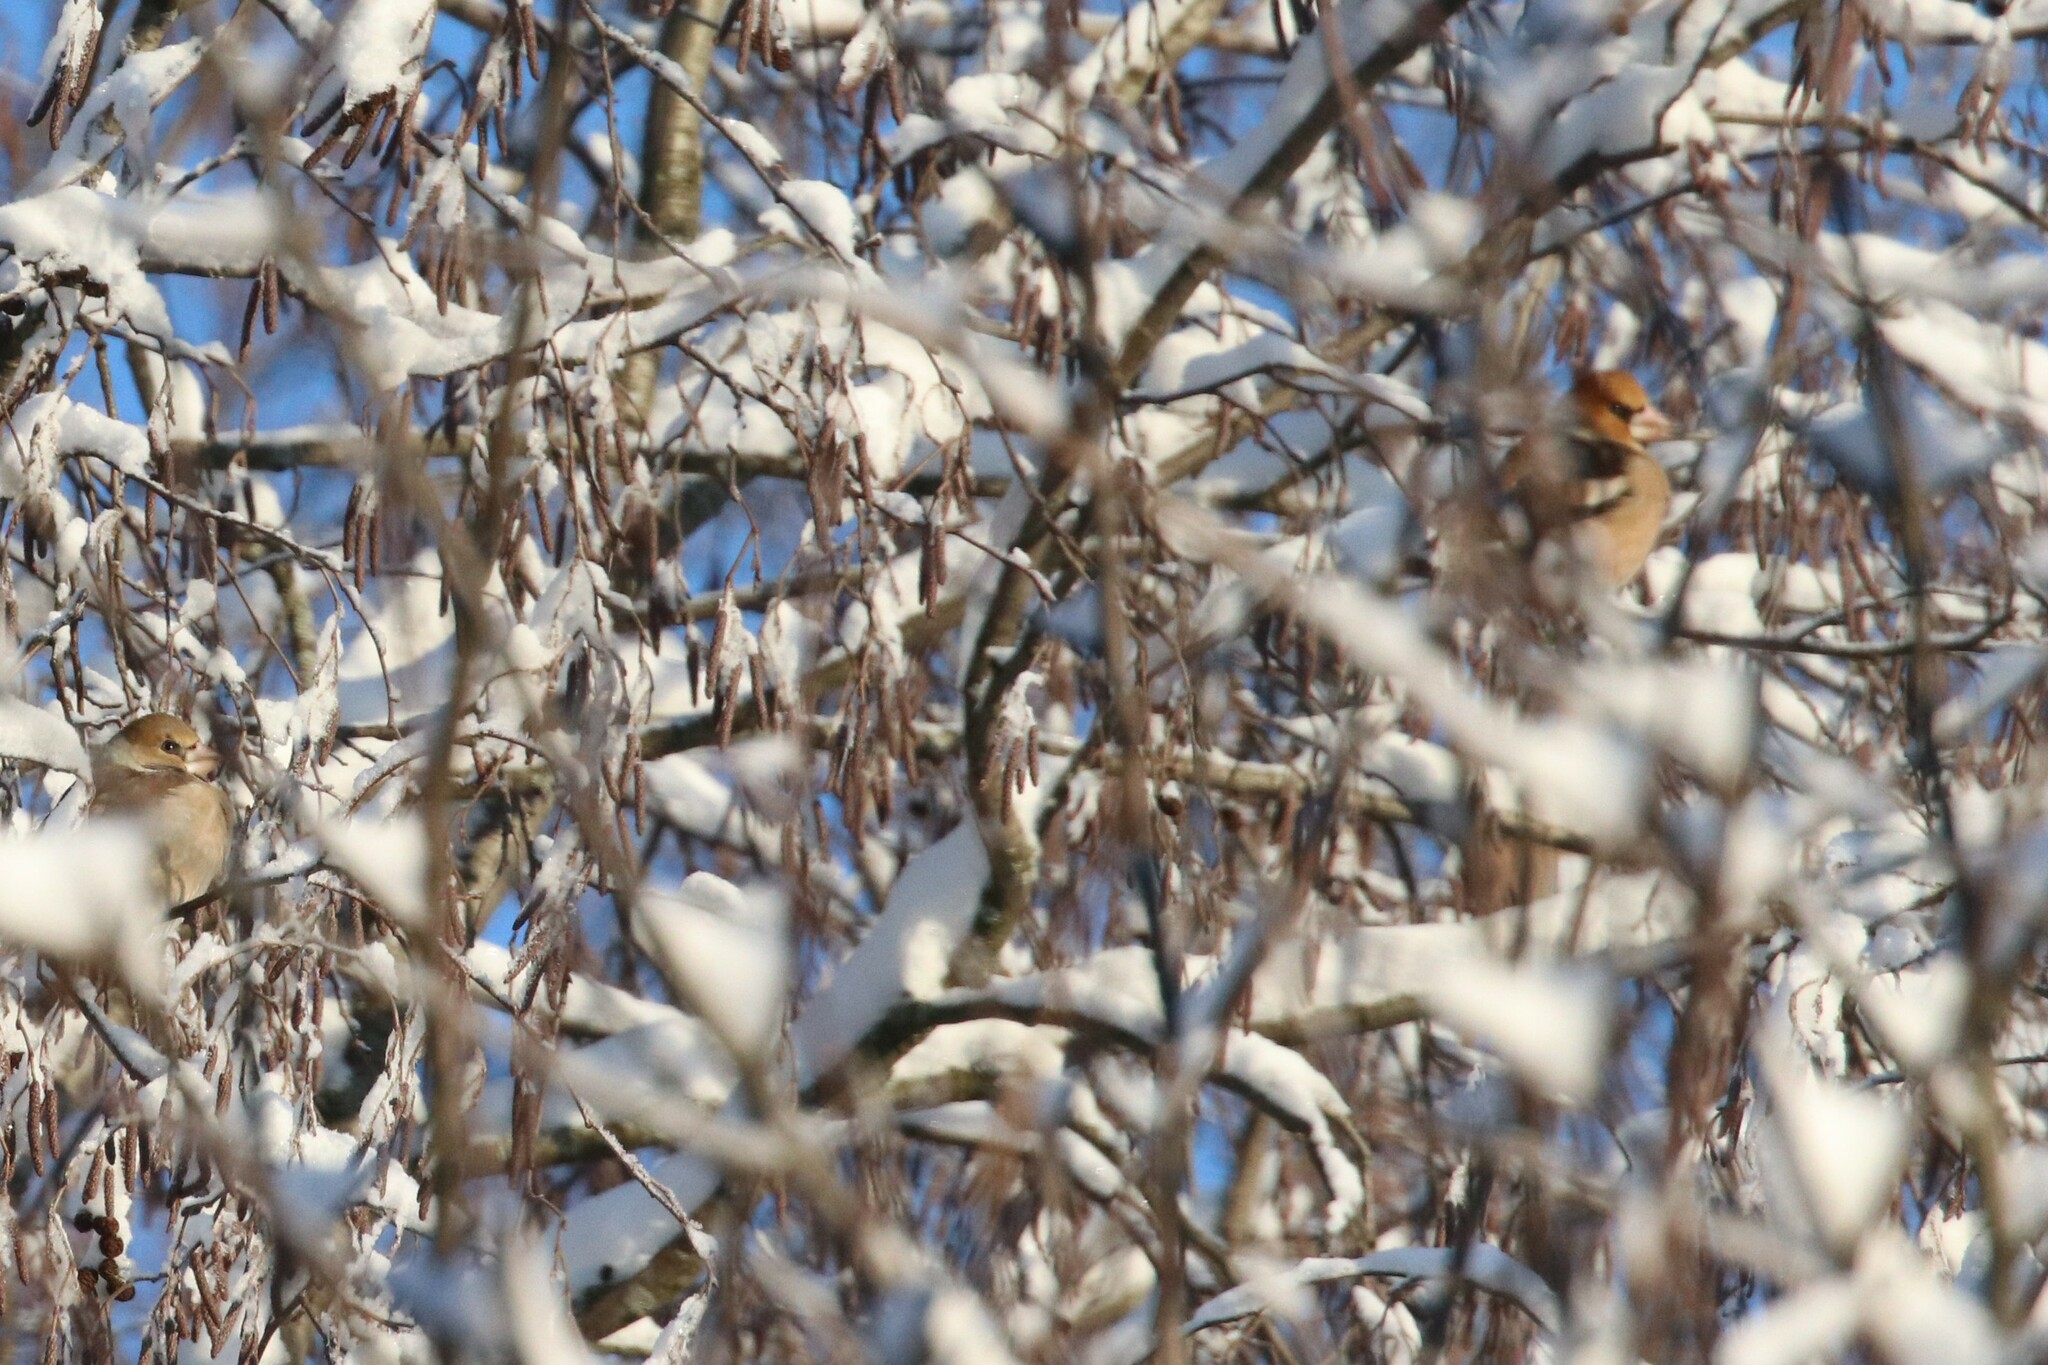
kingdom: Animalia
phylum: Chordata
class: Aves
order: Passeriformes
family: Fringillidae
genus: Coccothraustes
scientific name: Coccothraustes coccothraustes
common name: Hawfinch
